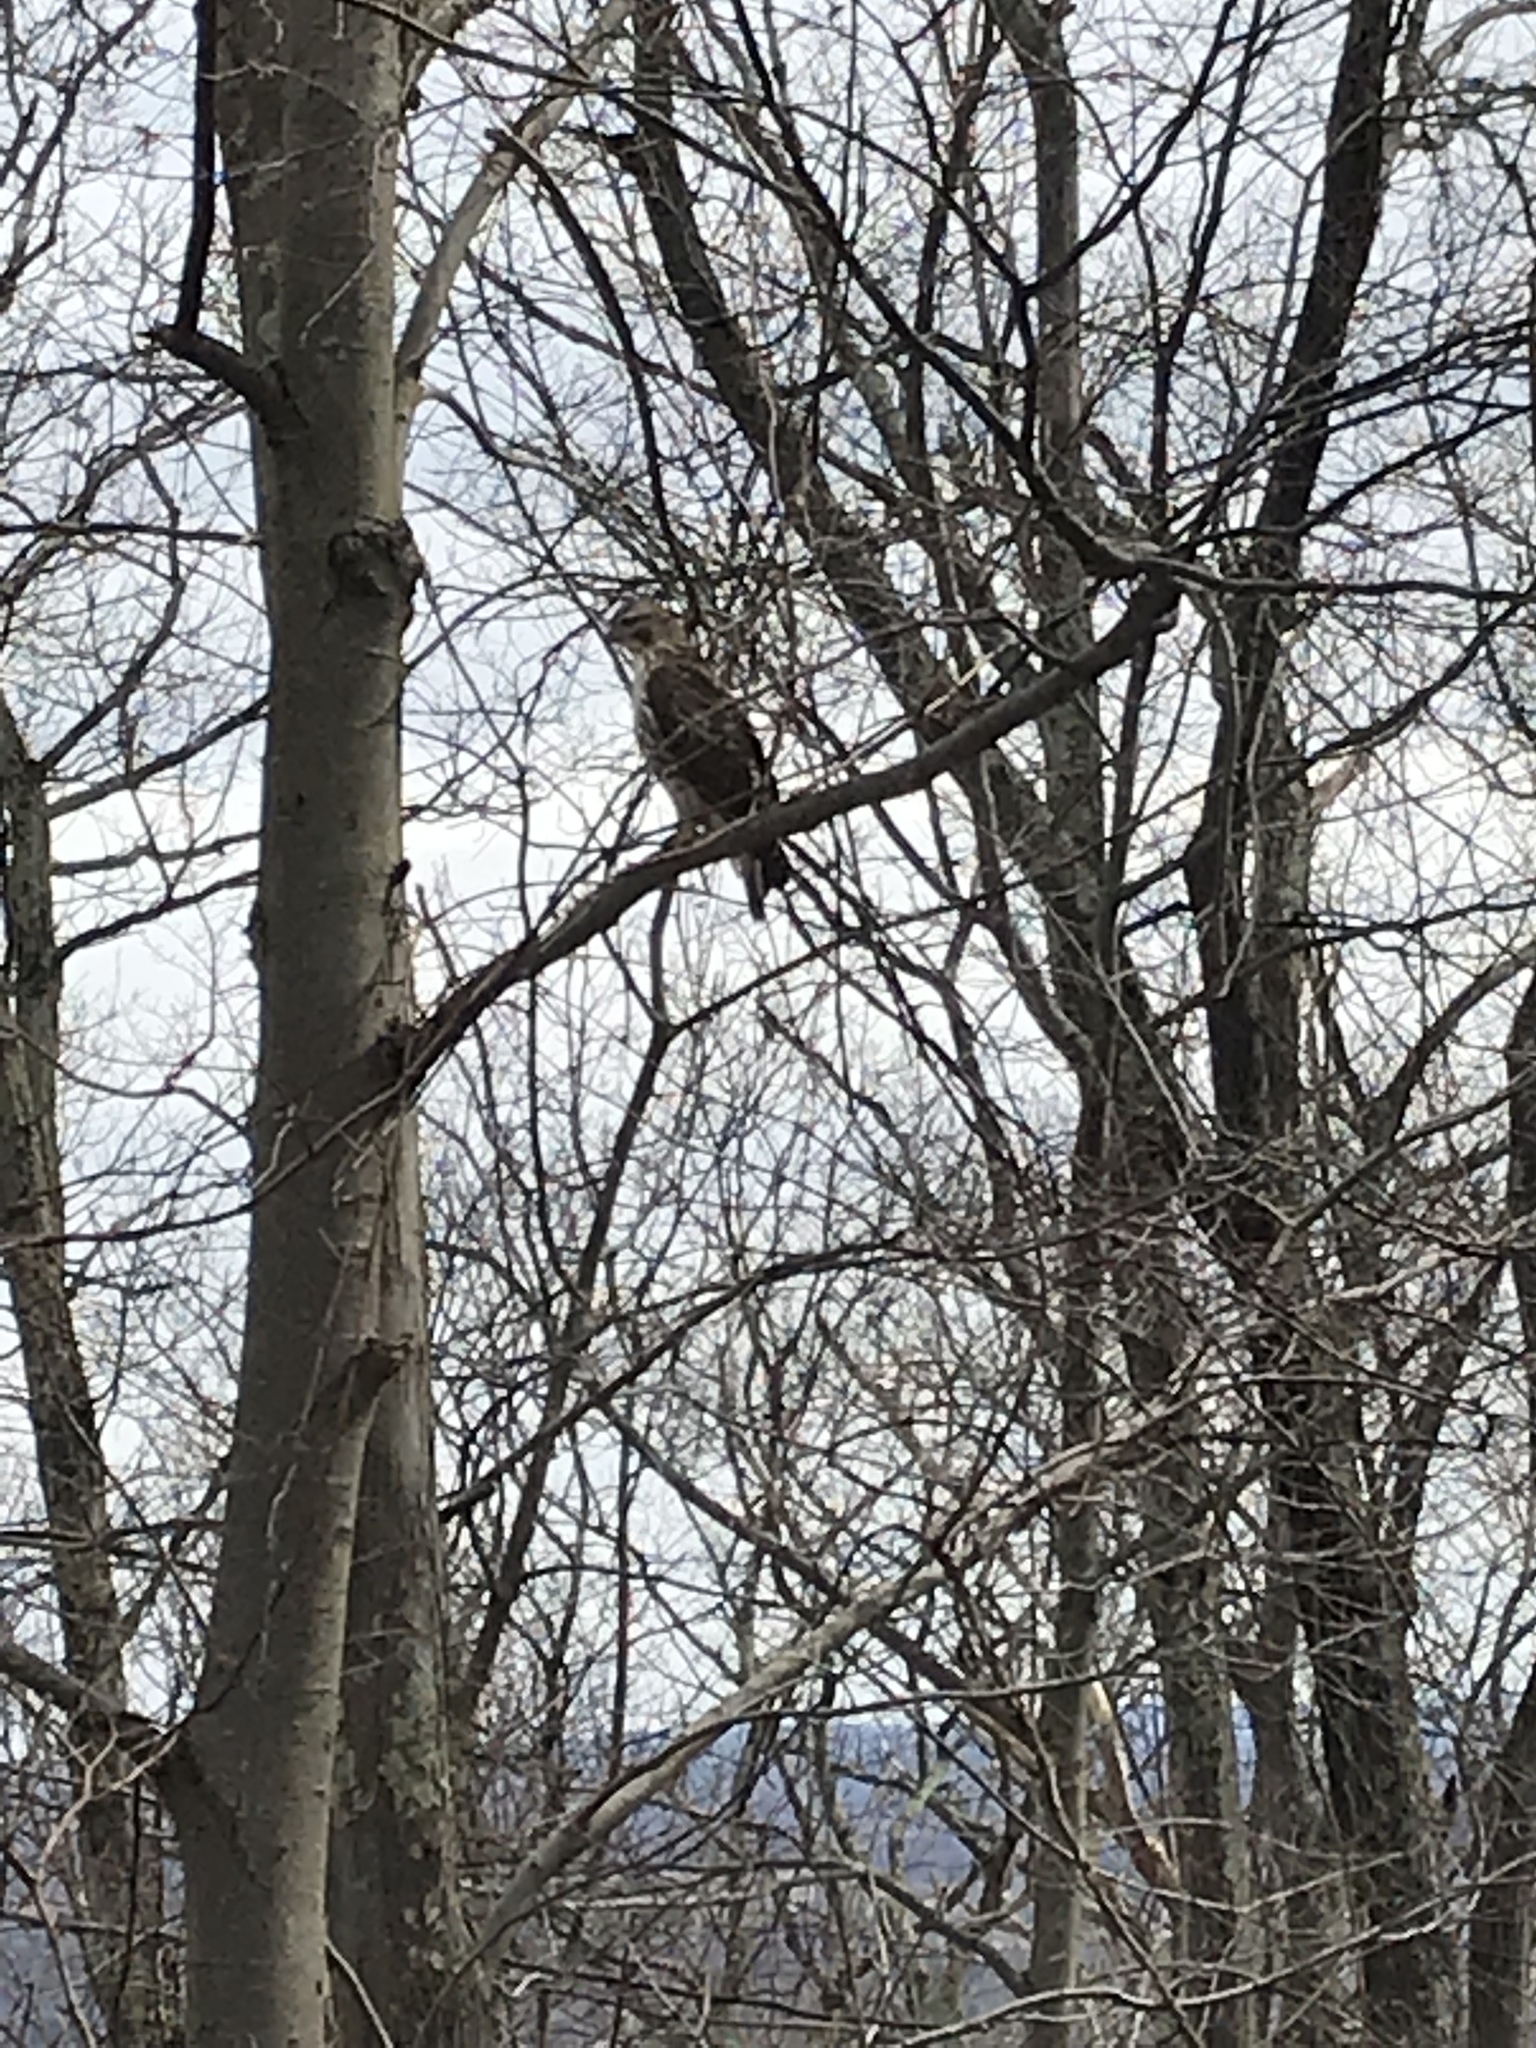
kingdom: Animalia
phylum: Chordata
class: Aves
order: Accipitriformes
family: Accipitridae
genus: Buteo
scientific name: Buteo jamaicensis
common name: Red-tailed hawk
